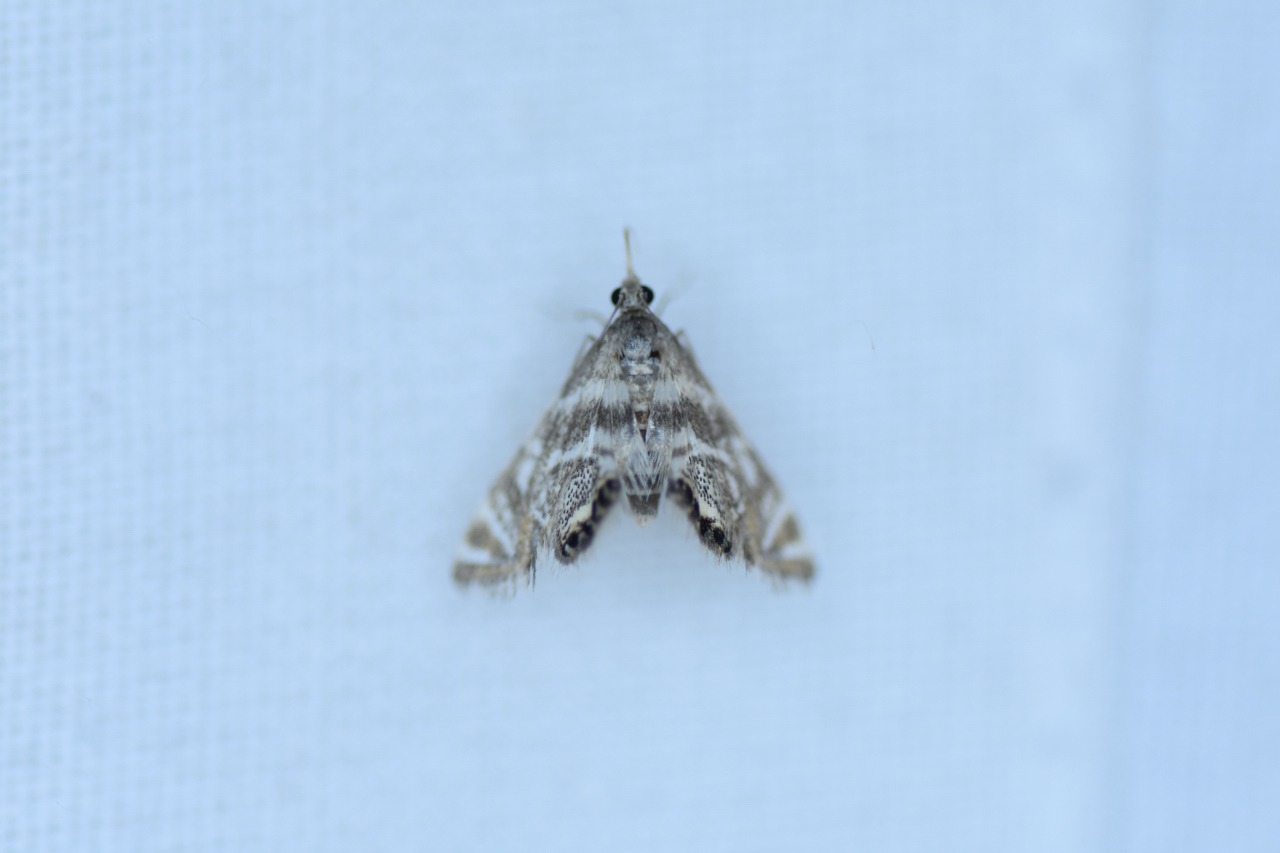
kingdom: Animalia
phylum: Arthropoda
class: Insecta
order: Lepidoptera
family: Crambidae
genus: Petrophila
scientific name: Petrophila canadensis
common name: Canadian petrophila
